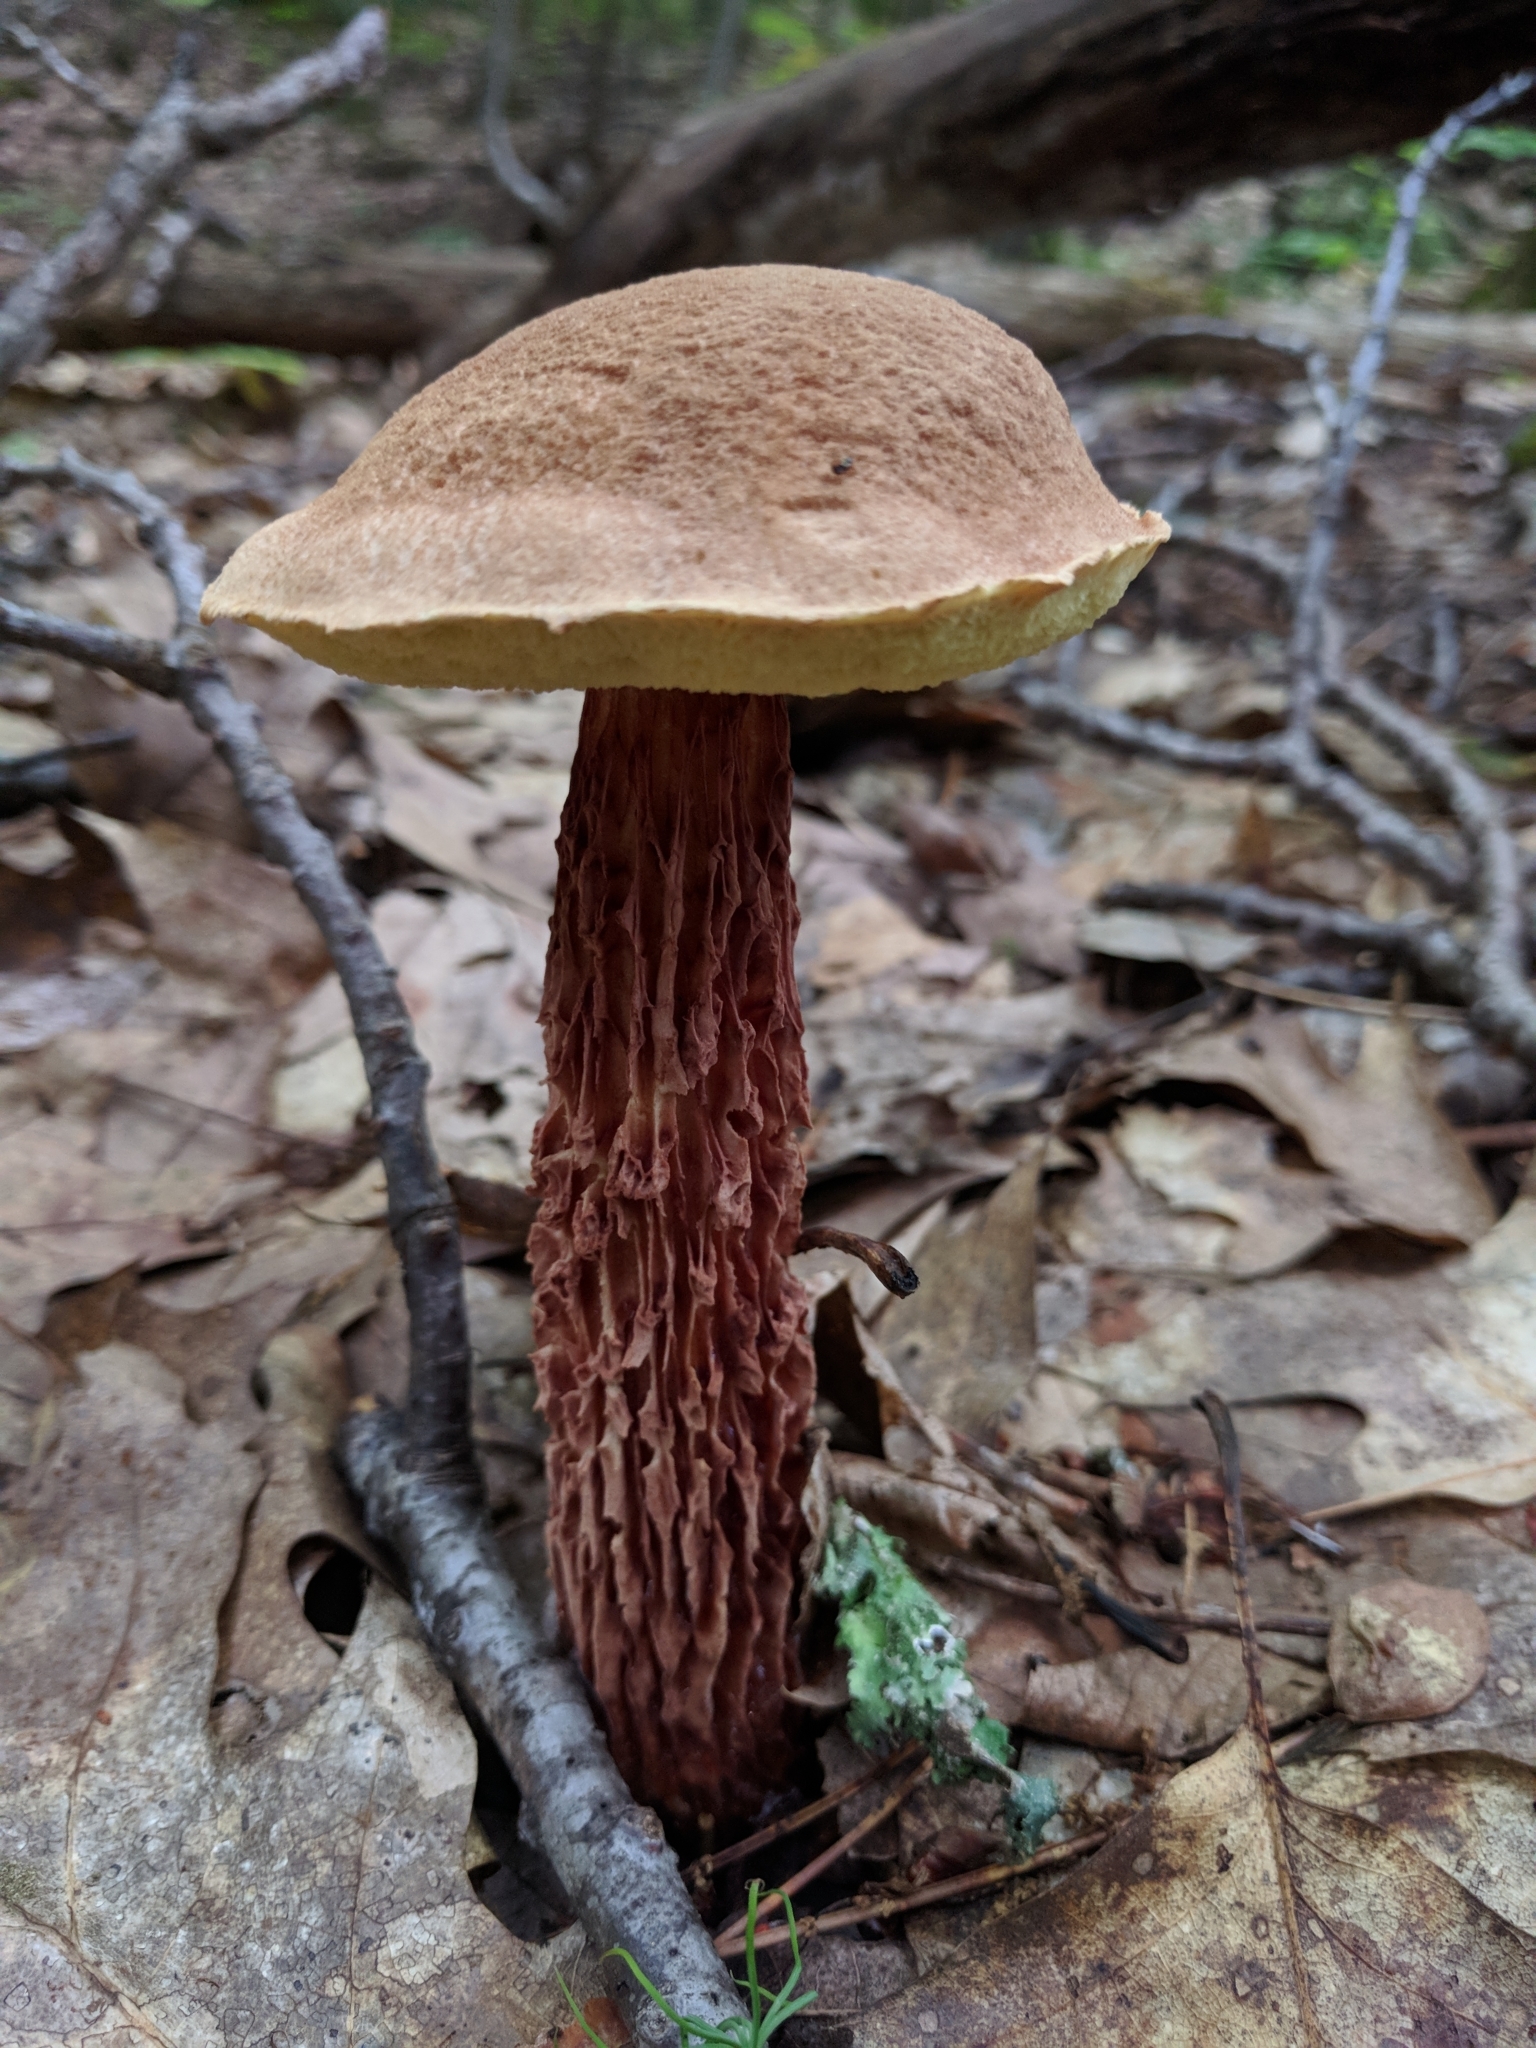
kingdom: Fungi
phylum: Basidiomycota
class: Agaricomycetes
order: Boletales
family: Boletaceae
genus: Aureoboletus
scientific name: Aureoboletus russellii
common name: Russell's bolete
